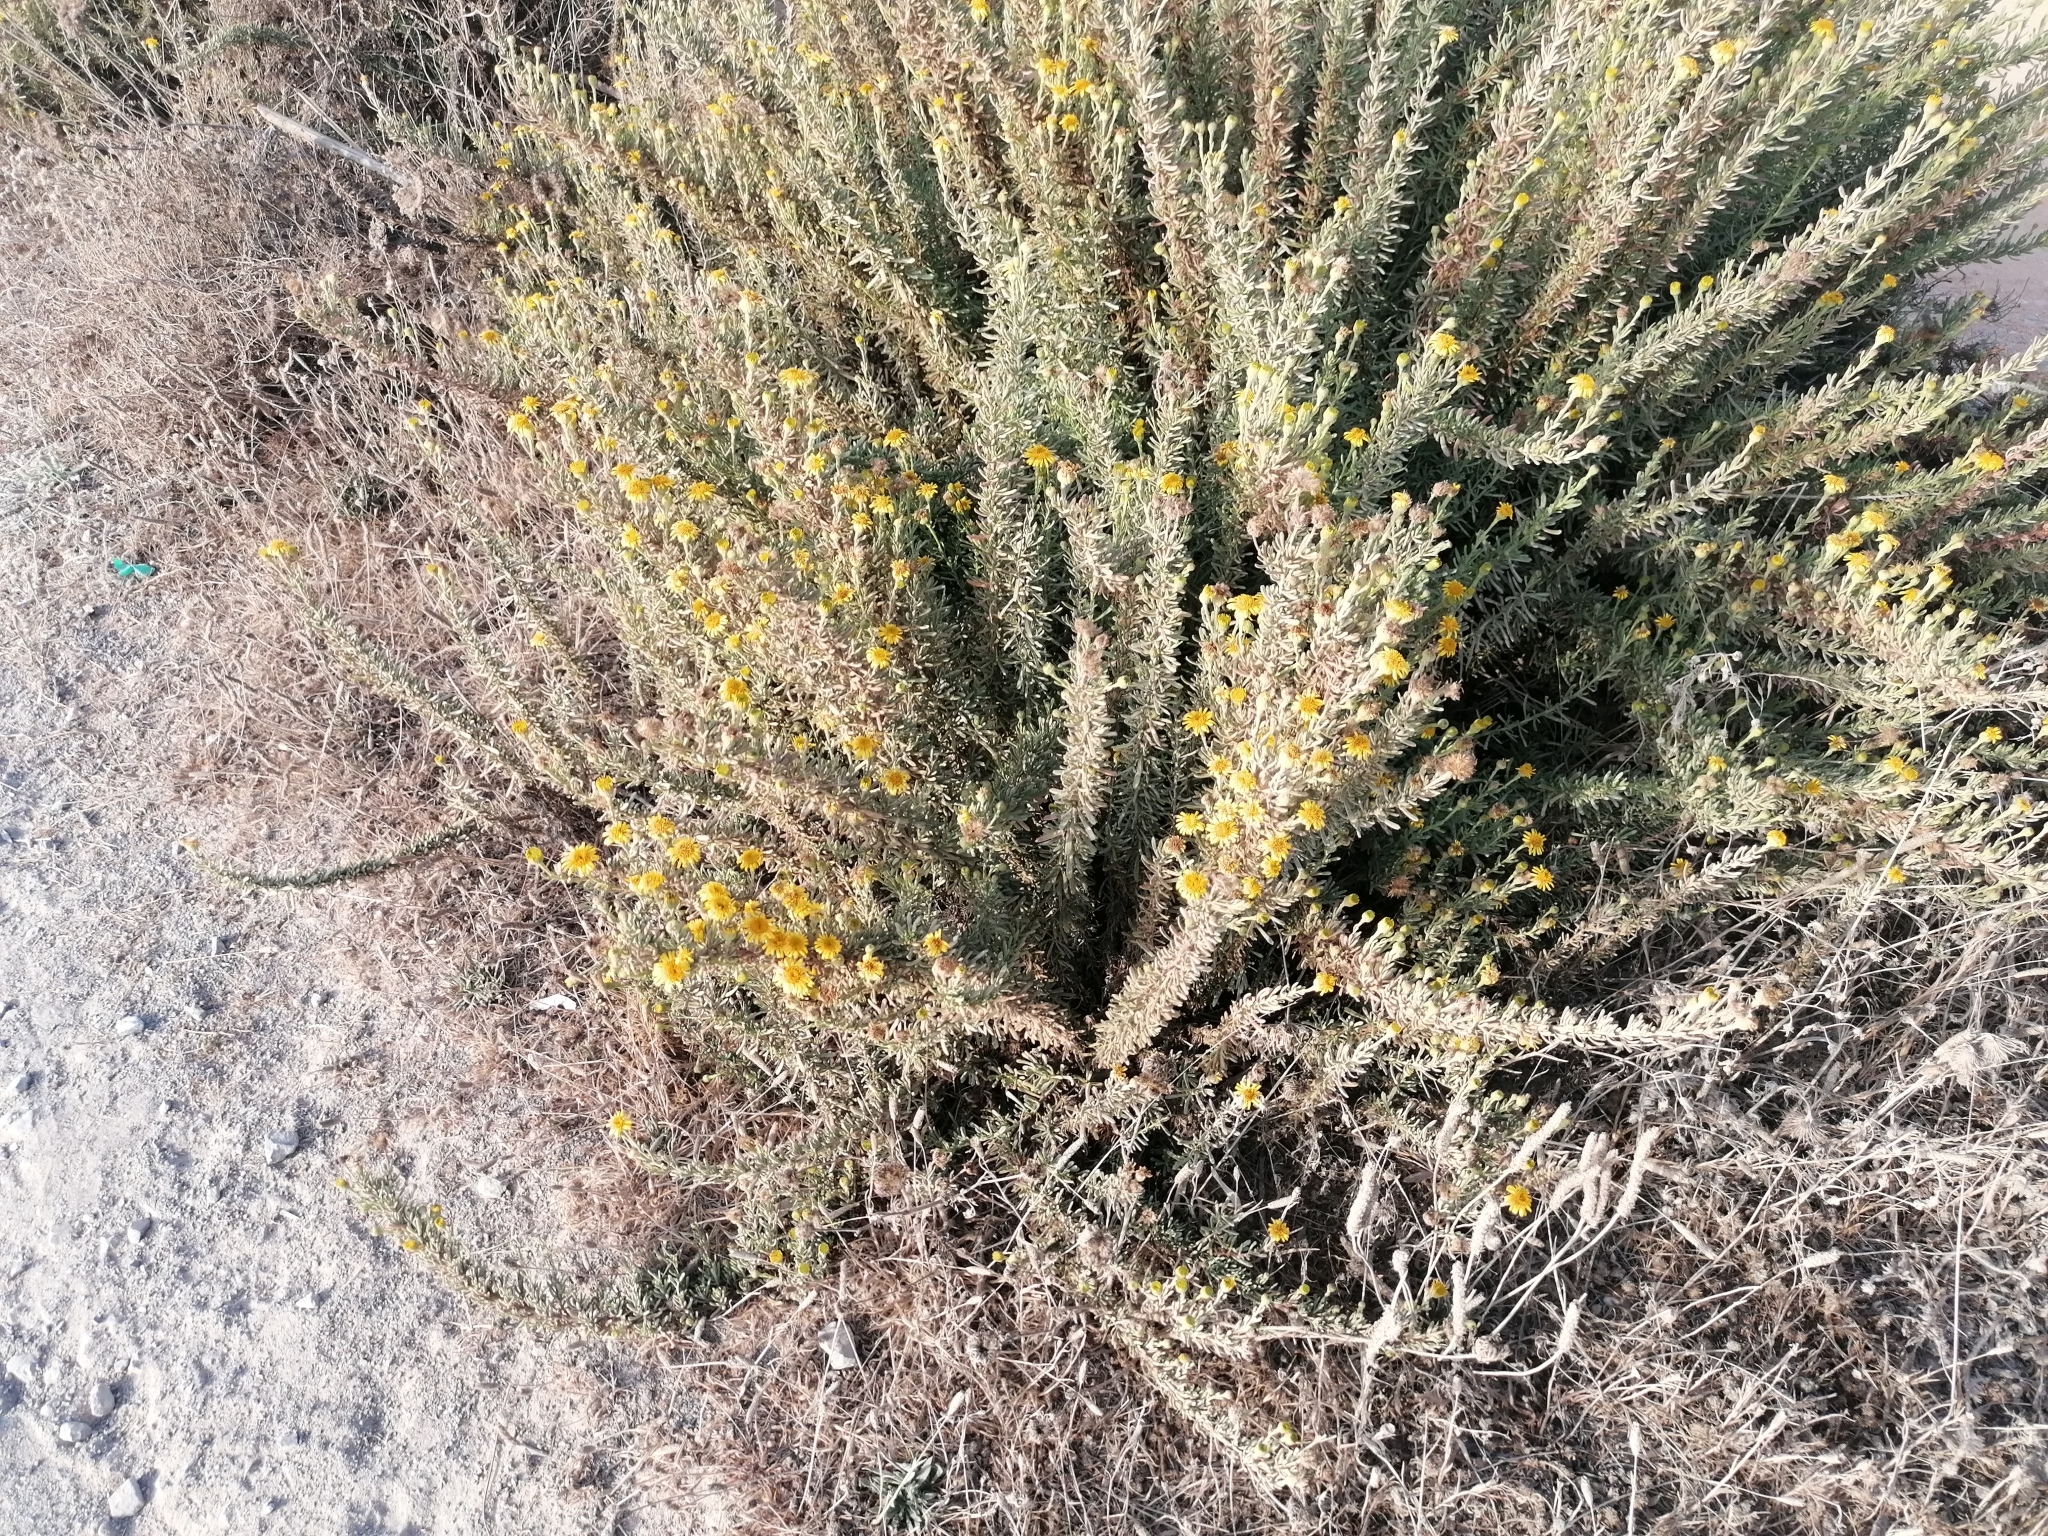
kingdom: Plantae
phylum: Tracheophyta
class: Magnoliopsida
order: Asterales
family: Asteraceae
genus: Limbarda
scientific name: Limbarda crithmoides
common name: Golden samphire
